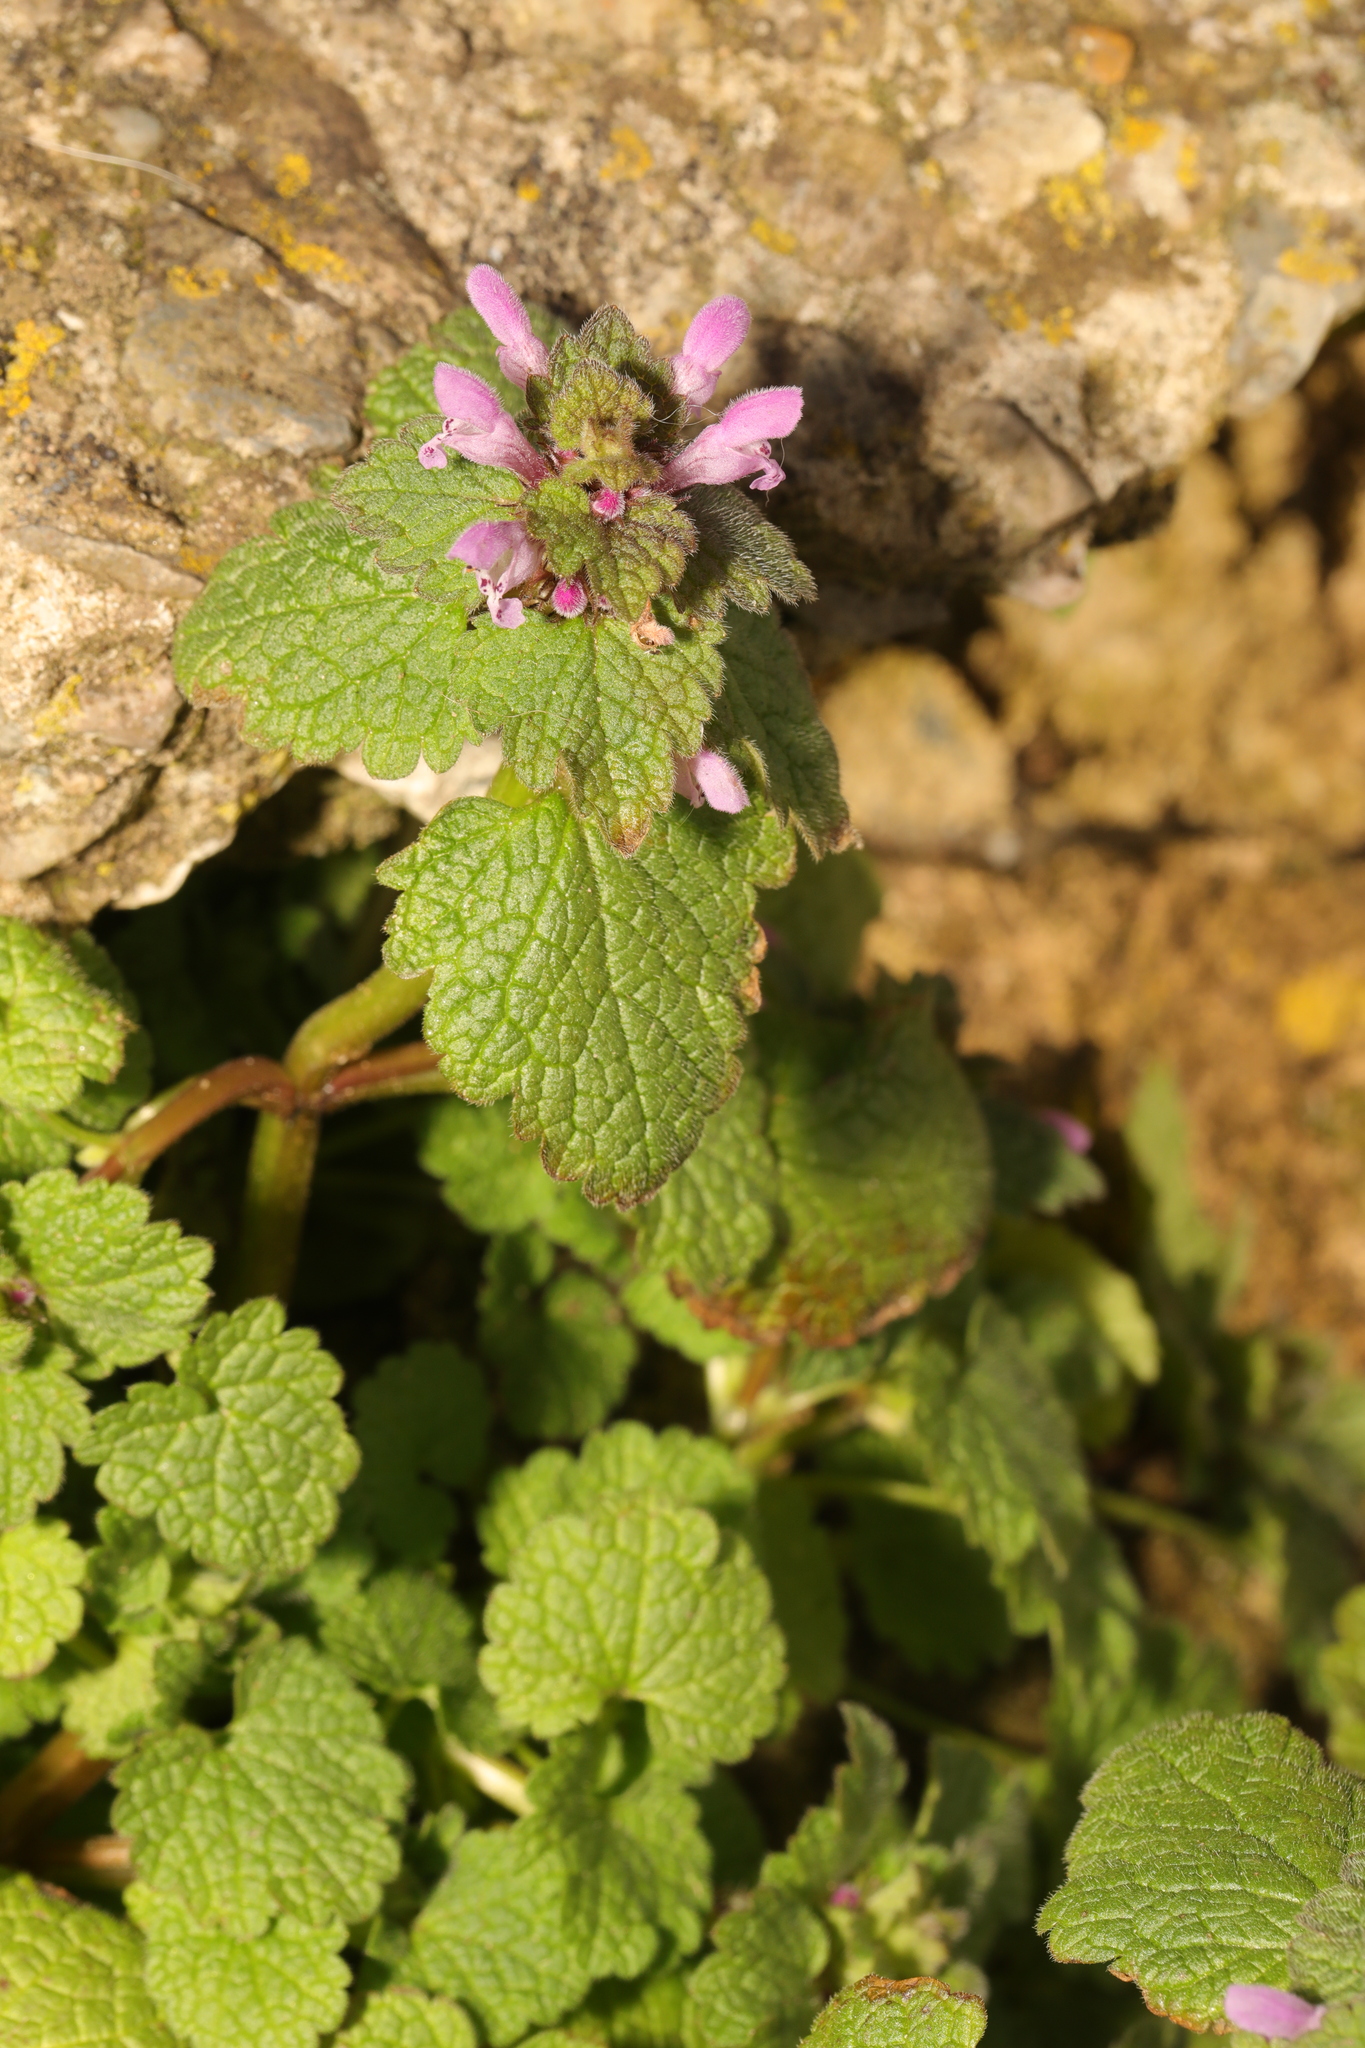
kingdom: Plantae
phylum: Tracheophyta
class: Magnoliopsida
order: Lamiales
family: Lamiaceae
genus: Lamium
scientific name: Lamium purpureum
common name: Red dead-nettle
